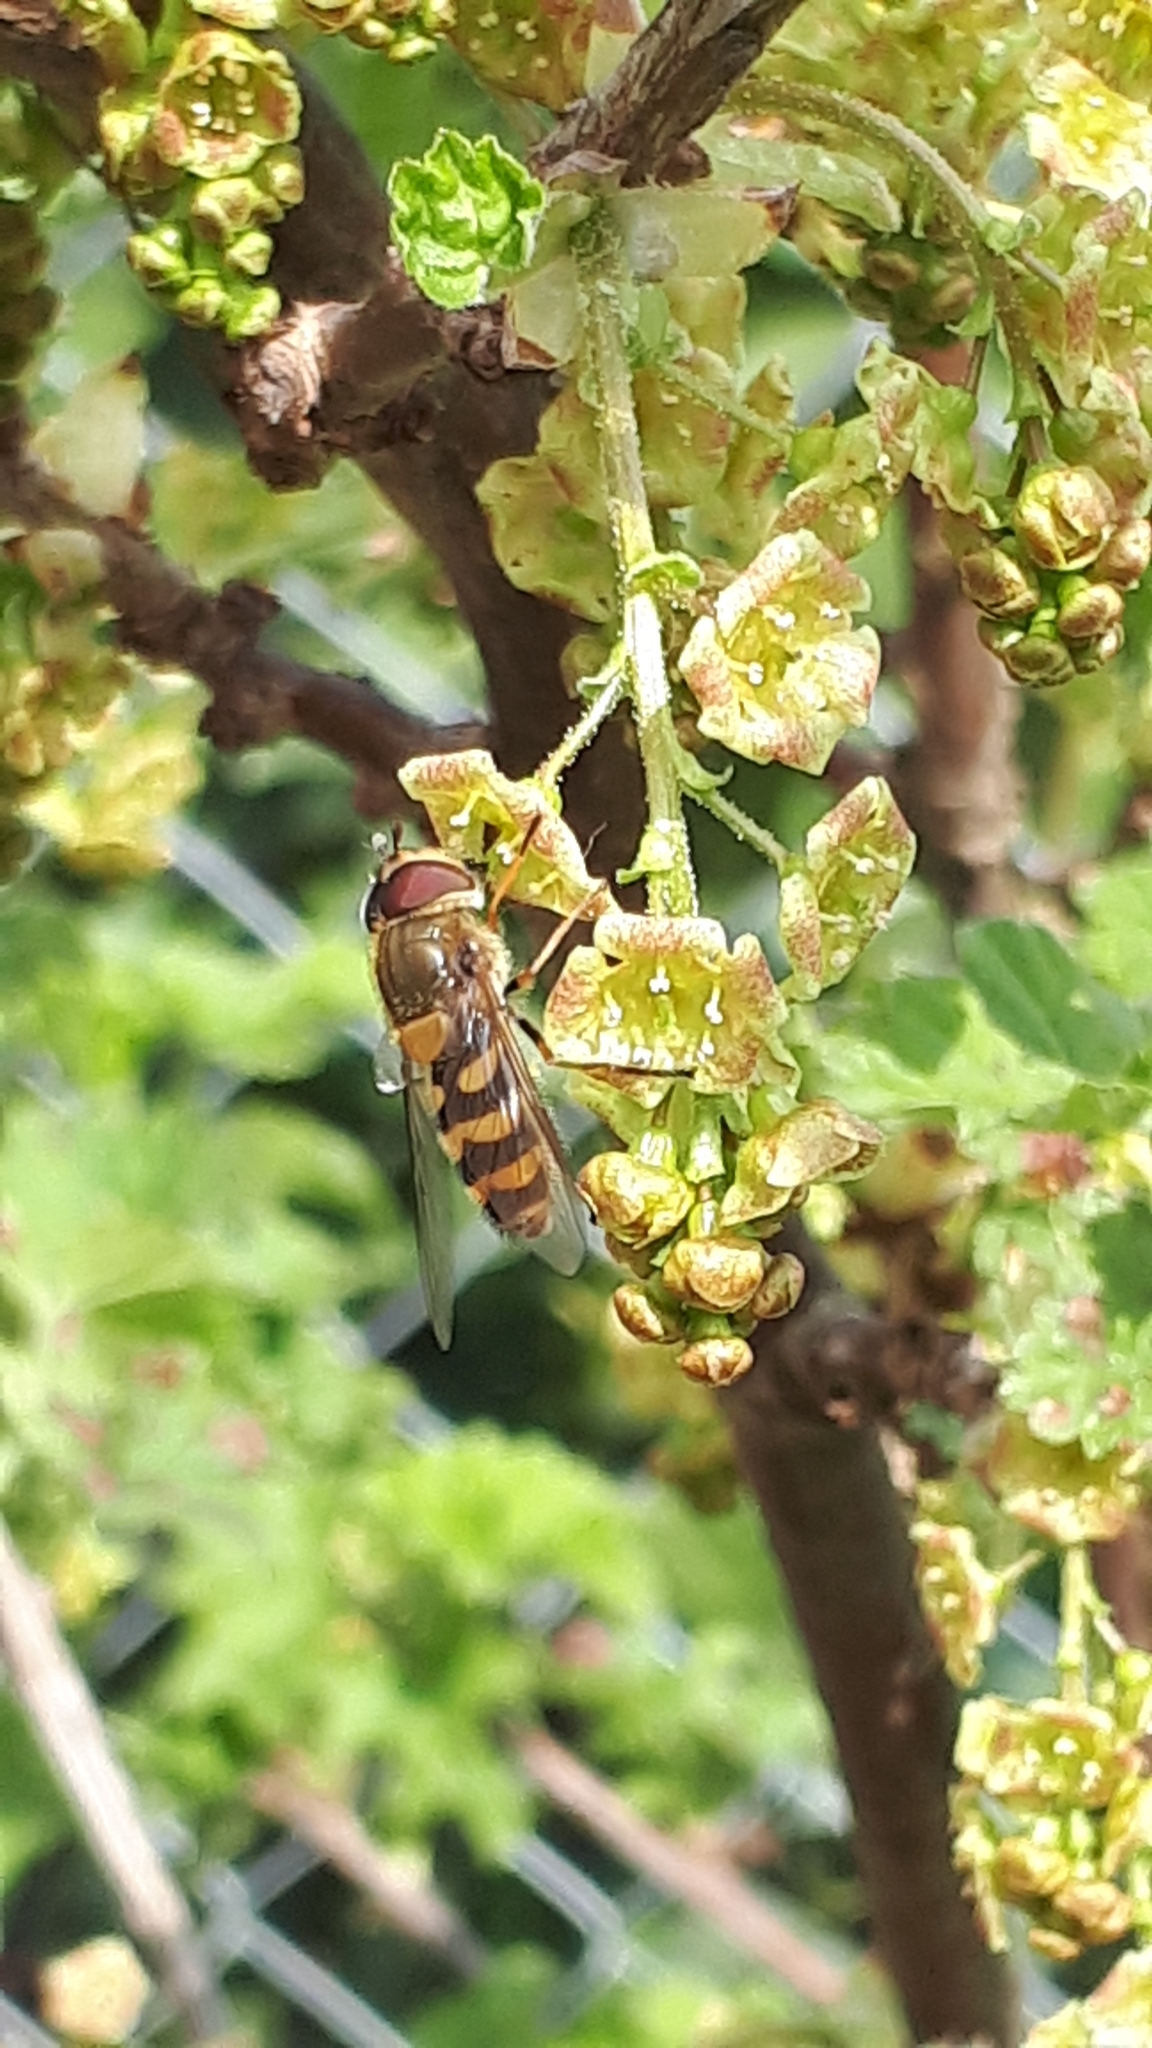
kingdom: Animalia
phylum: Arthropoda
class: Insecta
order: Diptera
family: Syrphidae
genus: Syrphus
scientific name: Syrphus
